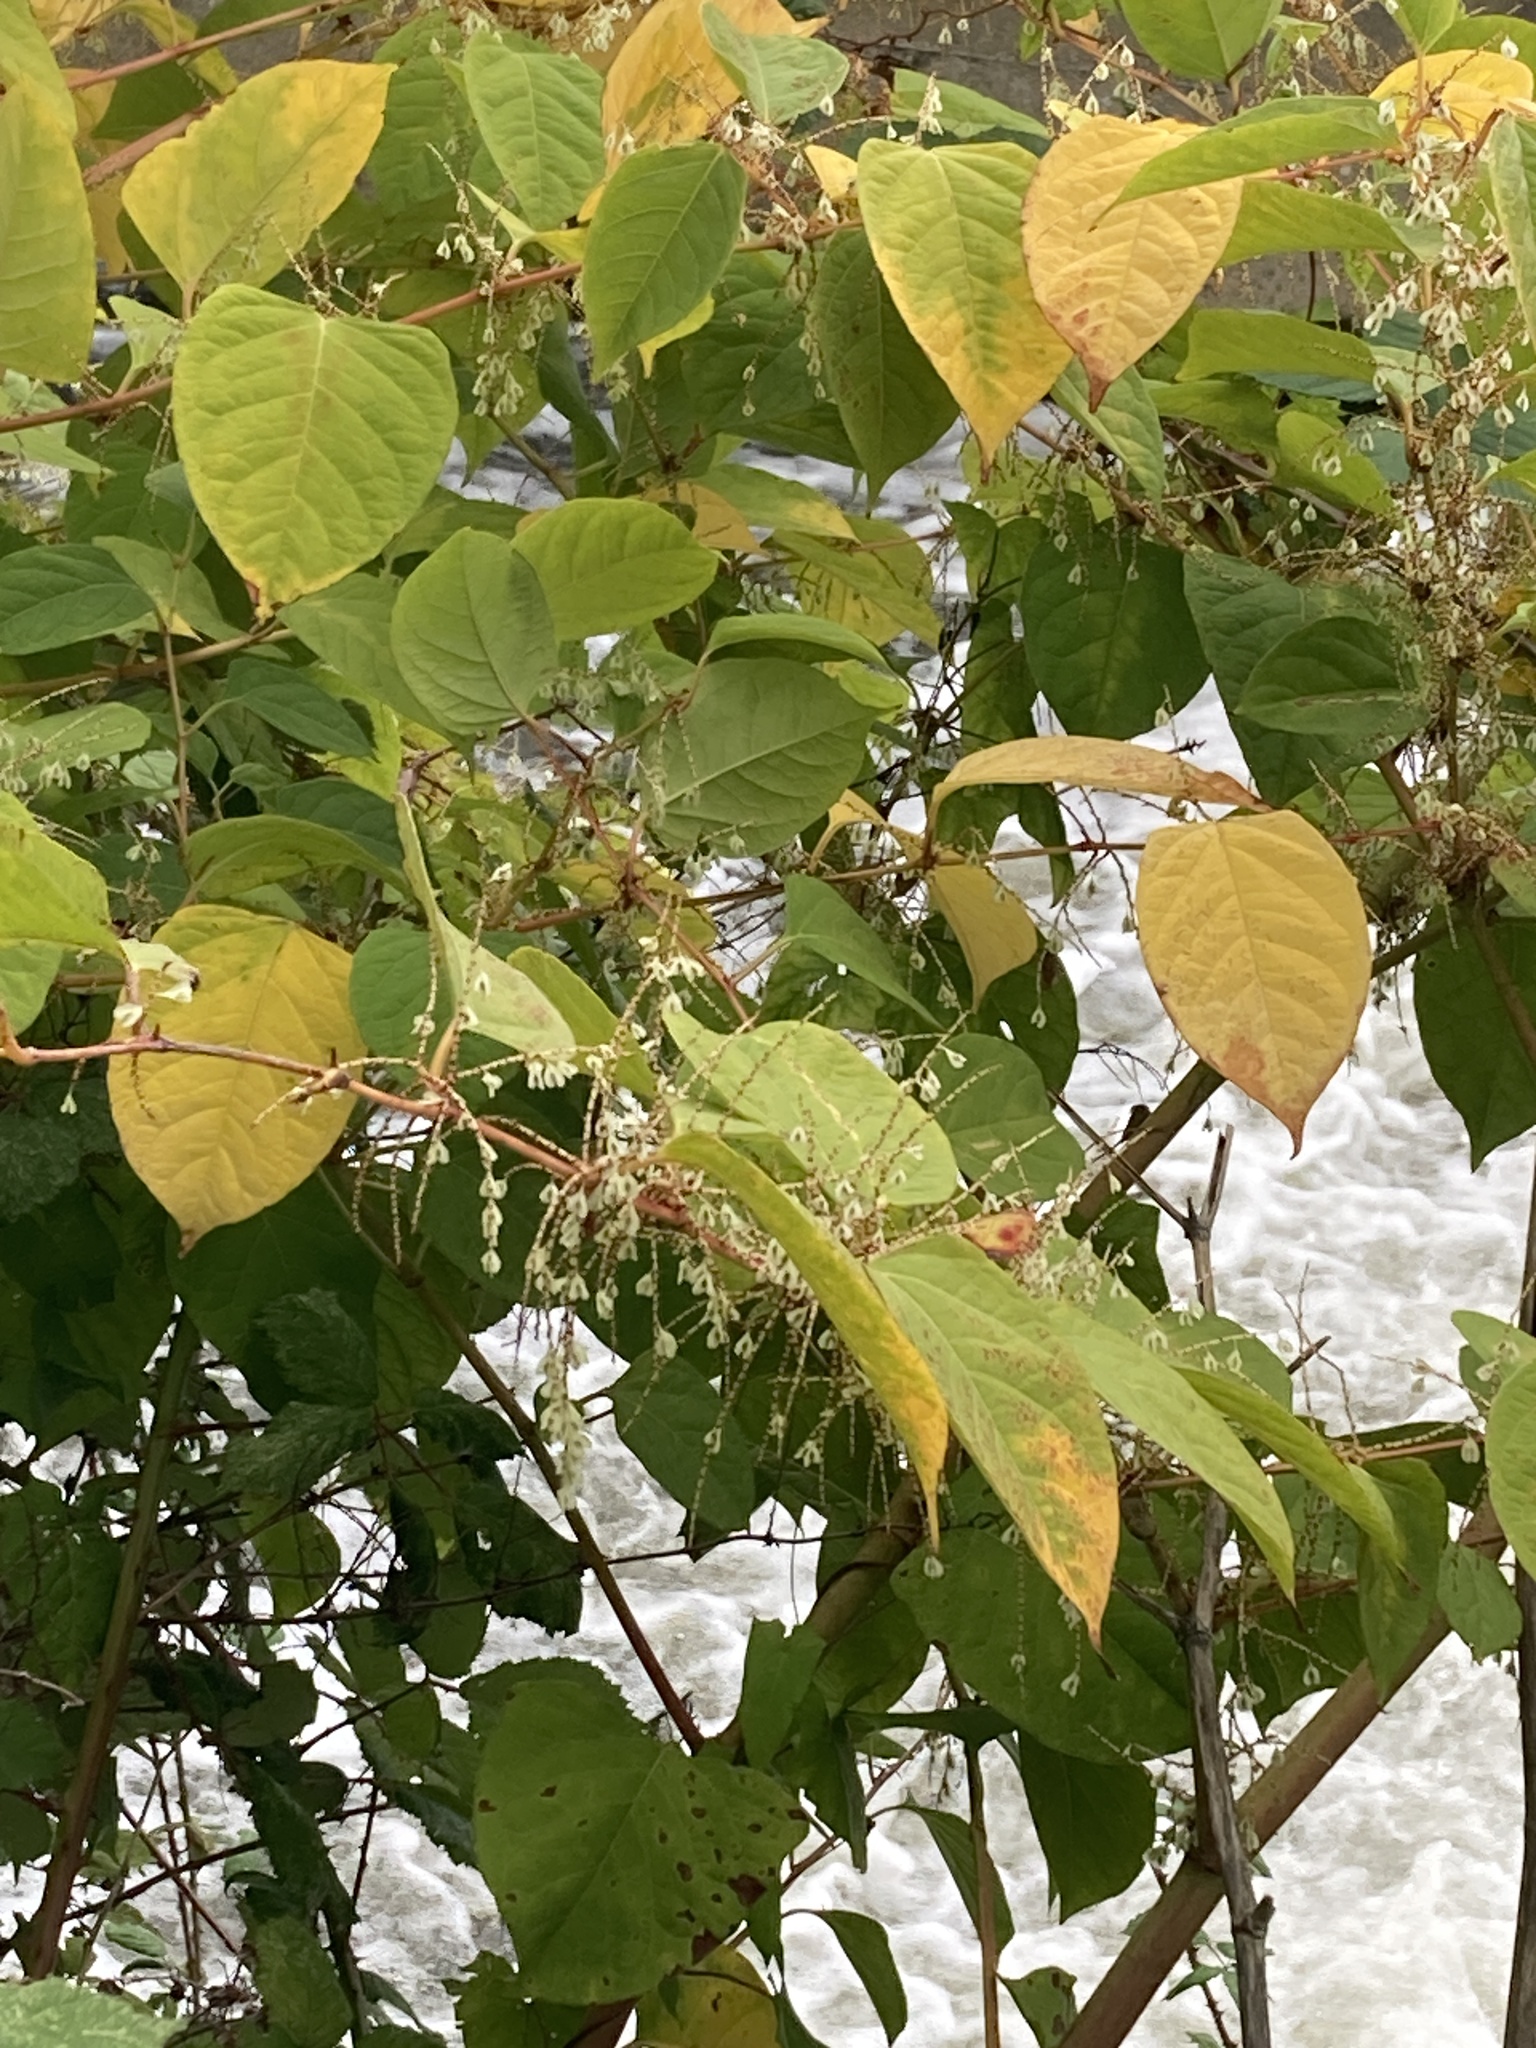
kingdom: Plantae
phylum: Tracheophyta
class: Magnoliopsida
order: Caryophyllales
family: Polygonaceae
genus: Reynoutria
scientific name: Reynoutria japonica
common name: Japanese knotweed
